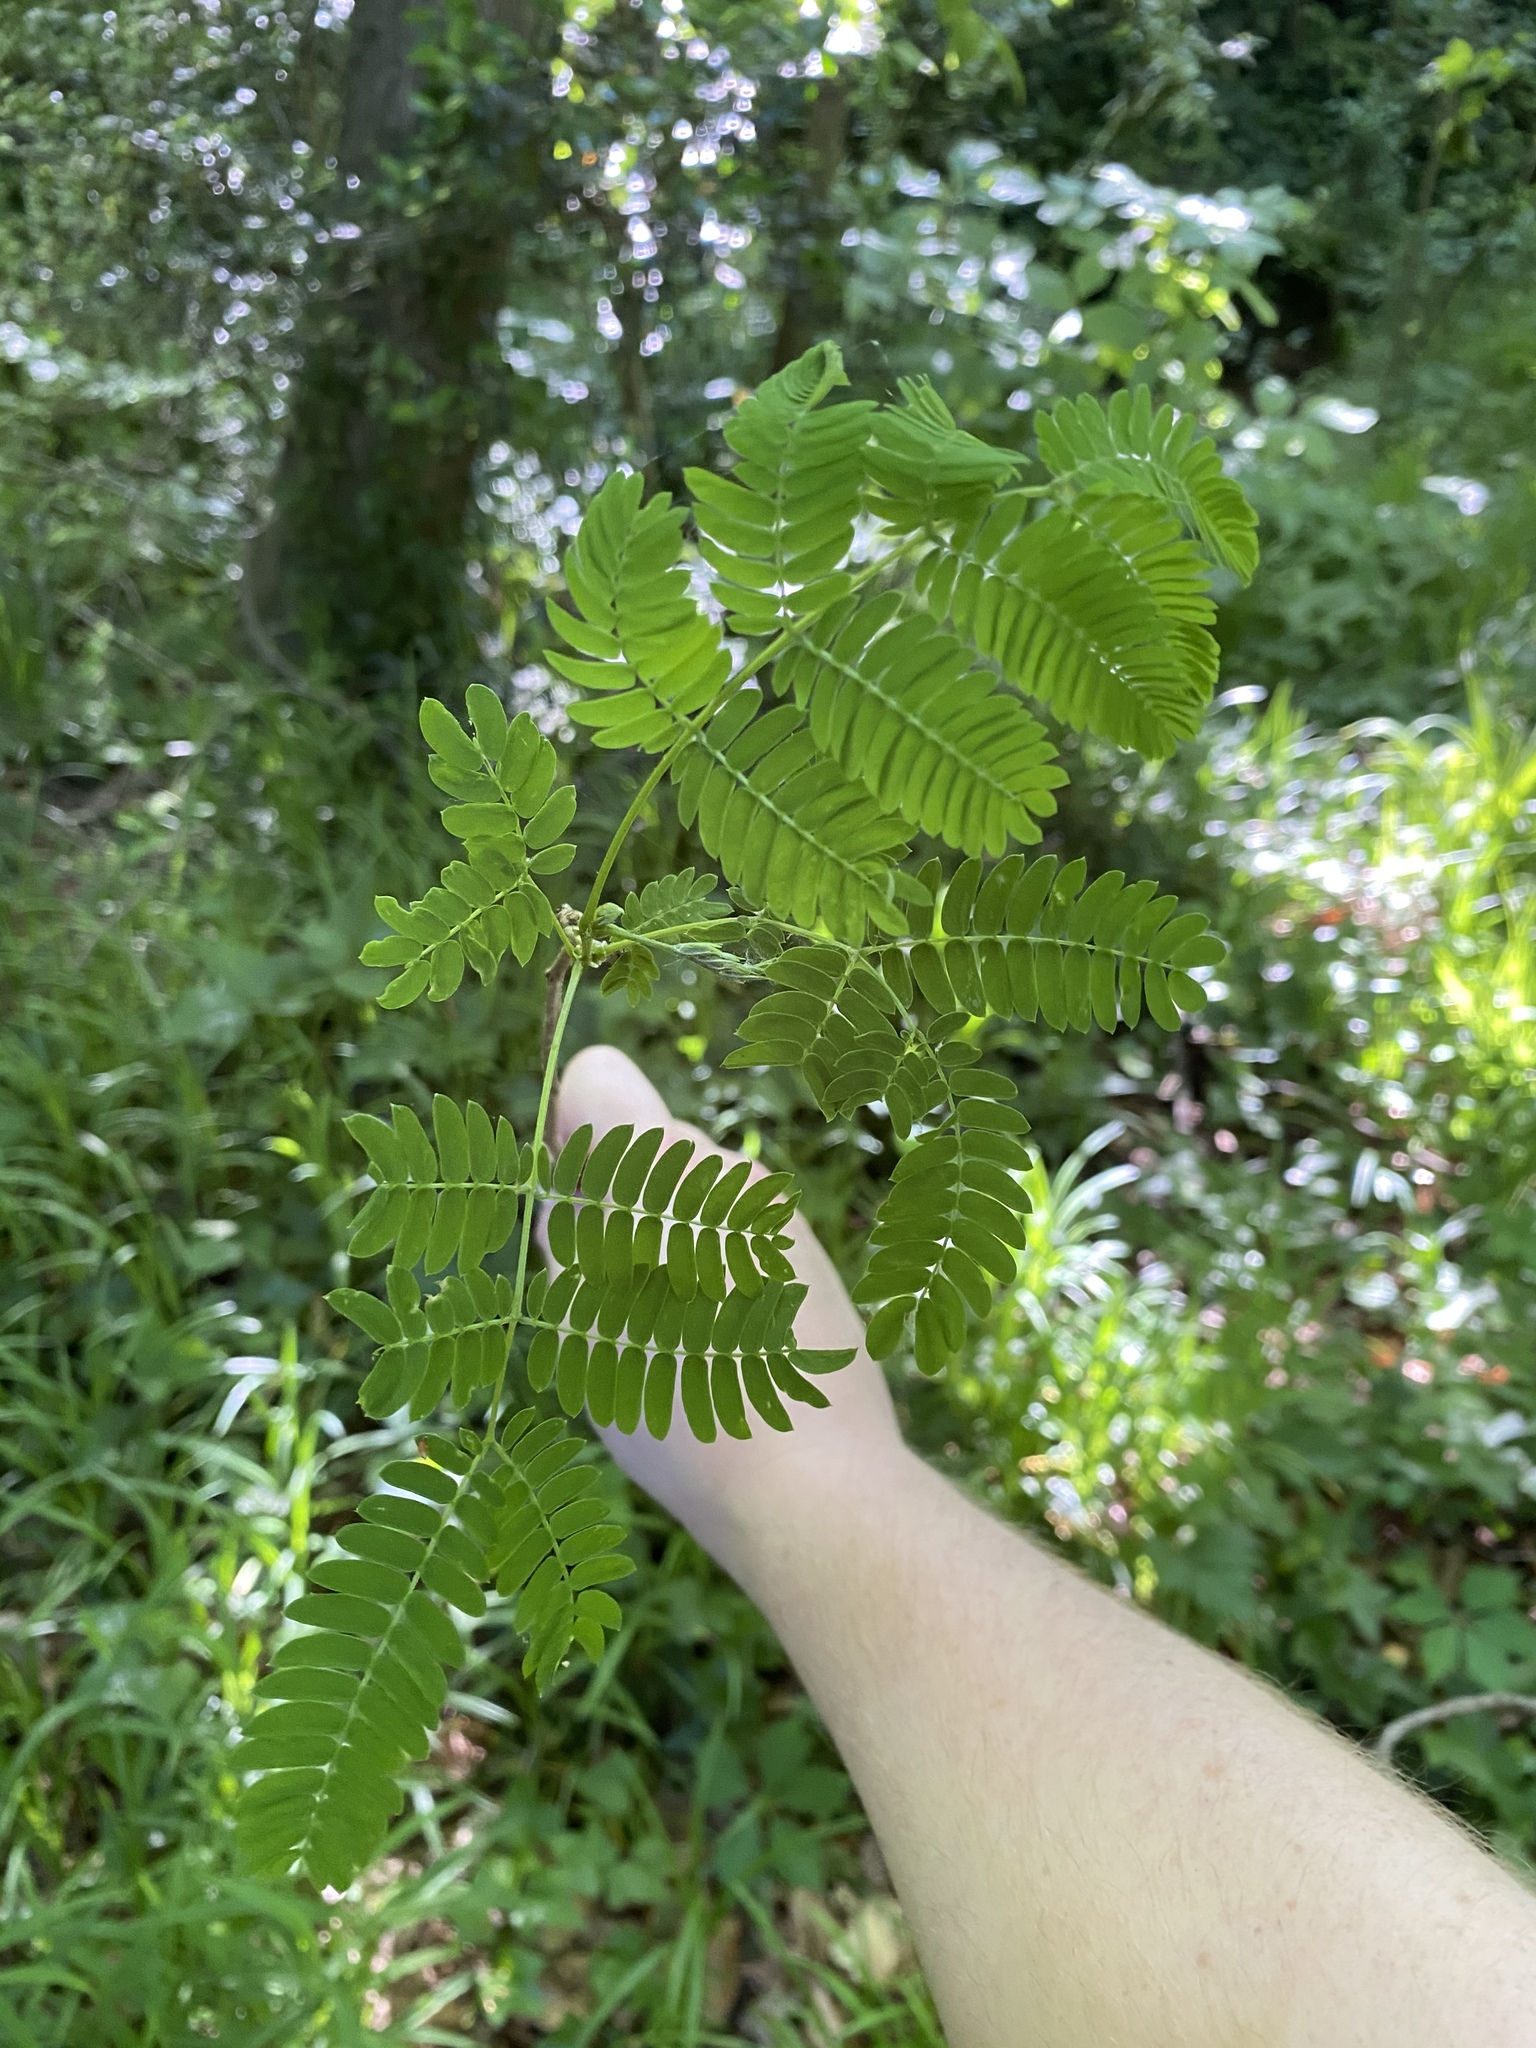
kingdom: Plantae
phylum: Tracheophyta
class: Magnoliopsida
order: Fabales
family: Fabaceae
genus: Albizia
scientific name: Albizia julibrissin
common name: Silktree
